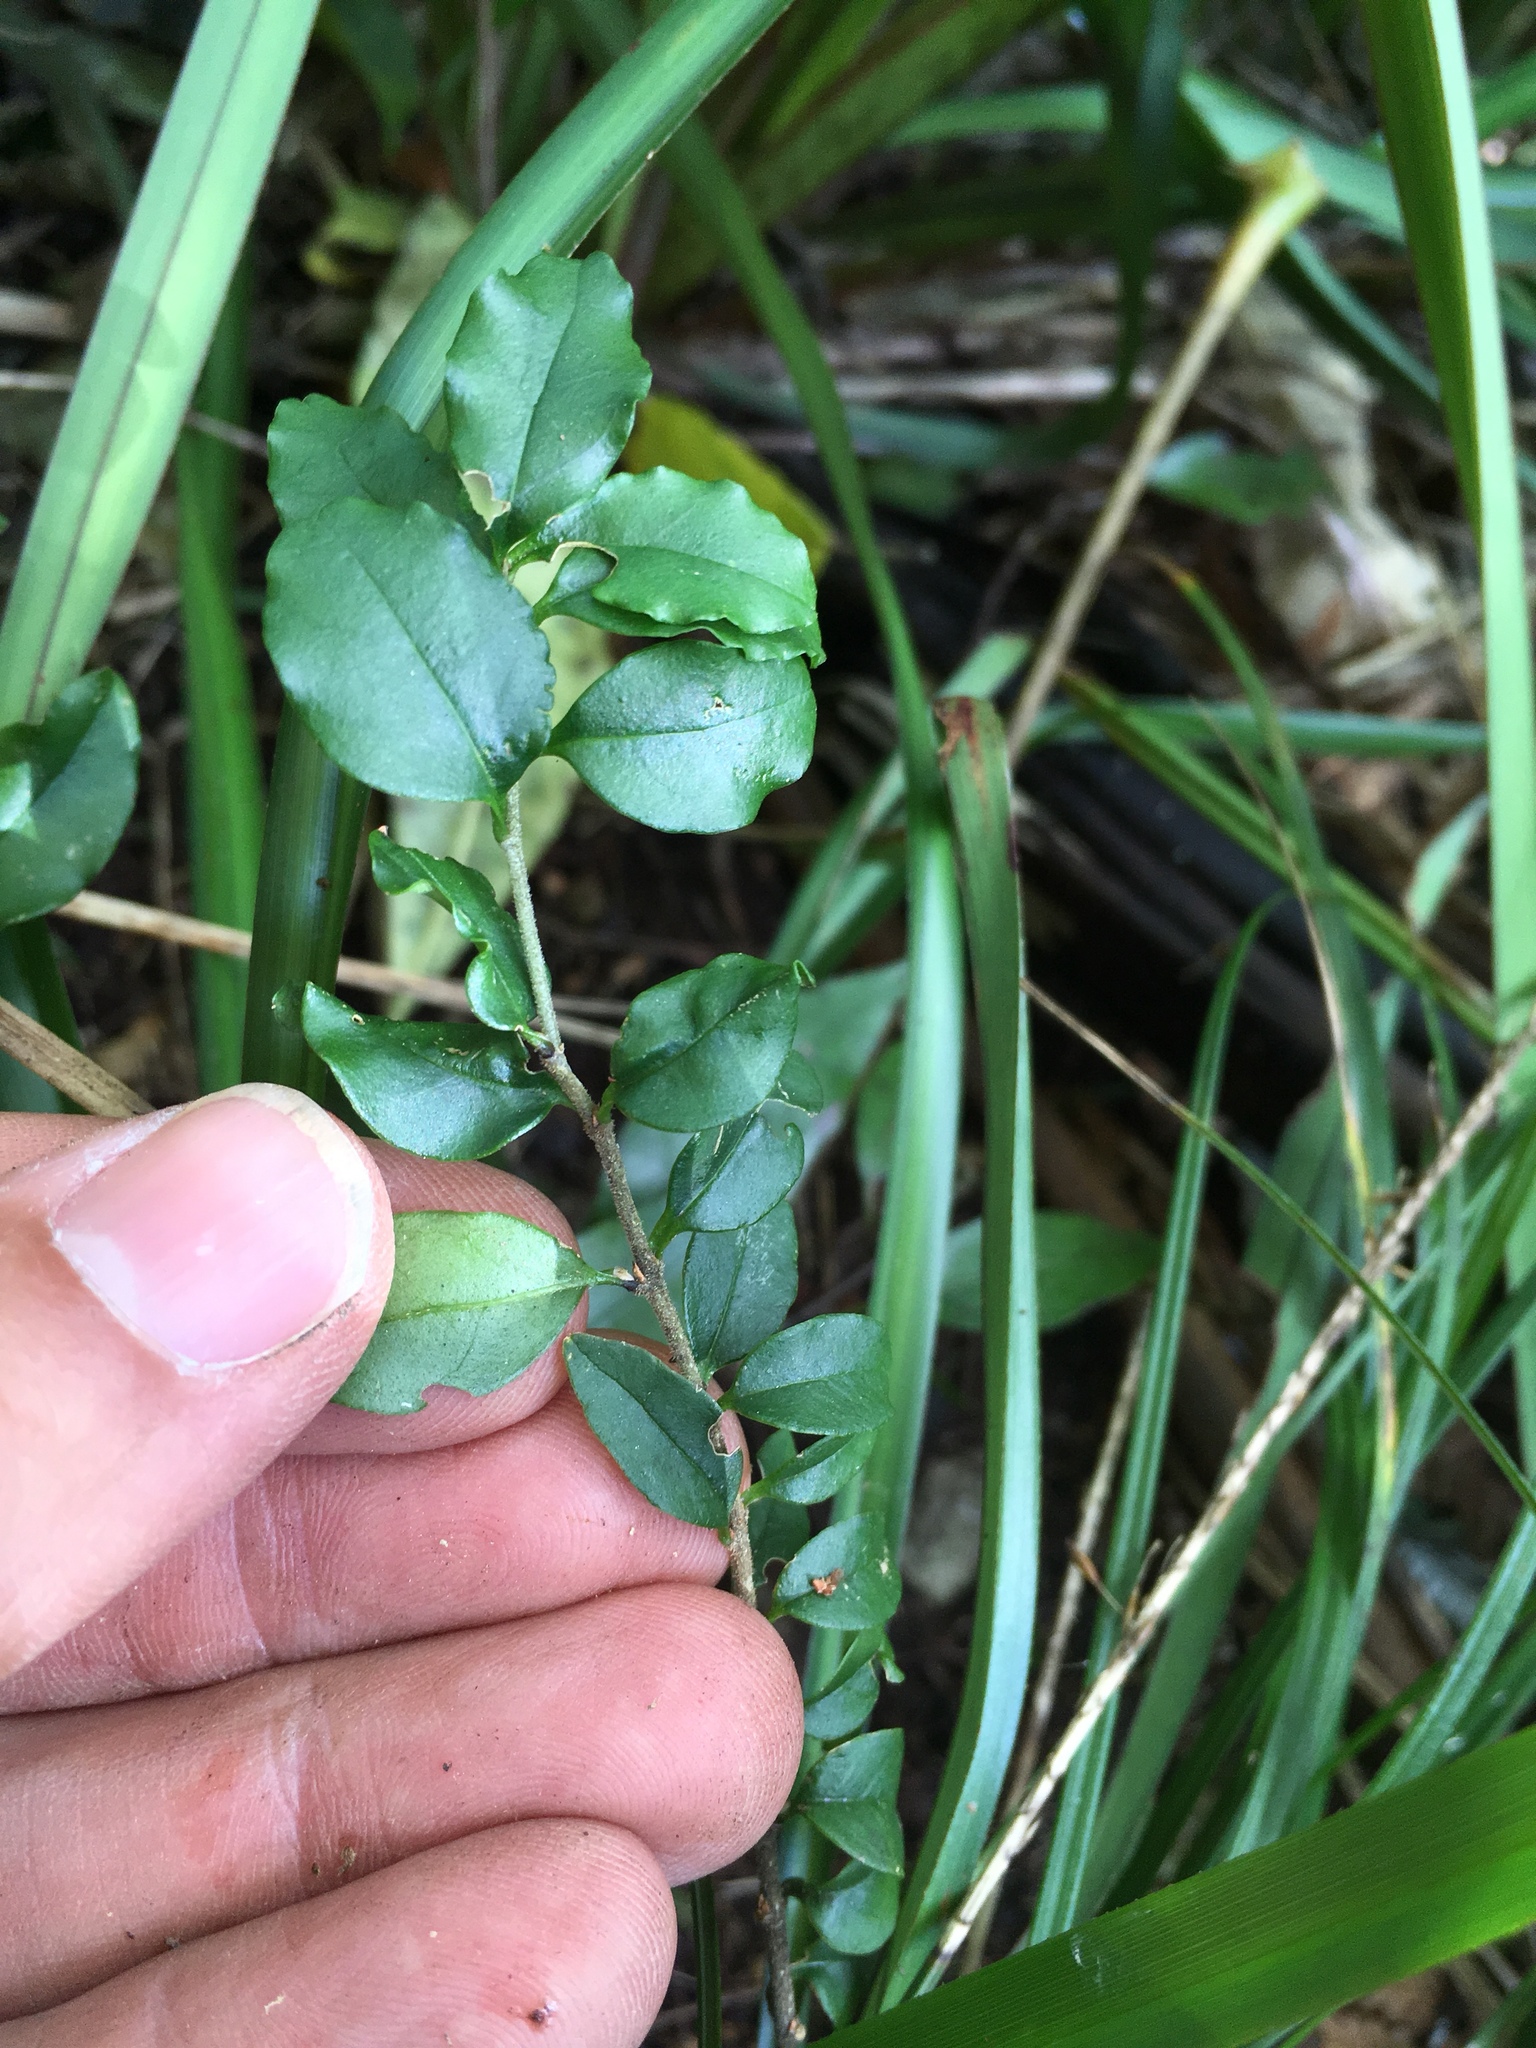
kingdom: Plantae
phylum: Tracheophyta
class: Magnoliopsida
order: Lamiales
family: Oleaceae
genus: Ligustrum
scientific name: Ligustrum sinense
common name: Chinese privet
